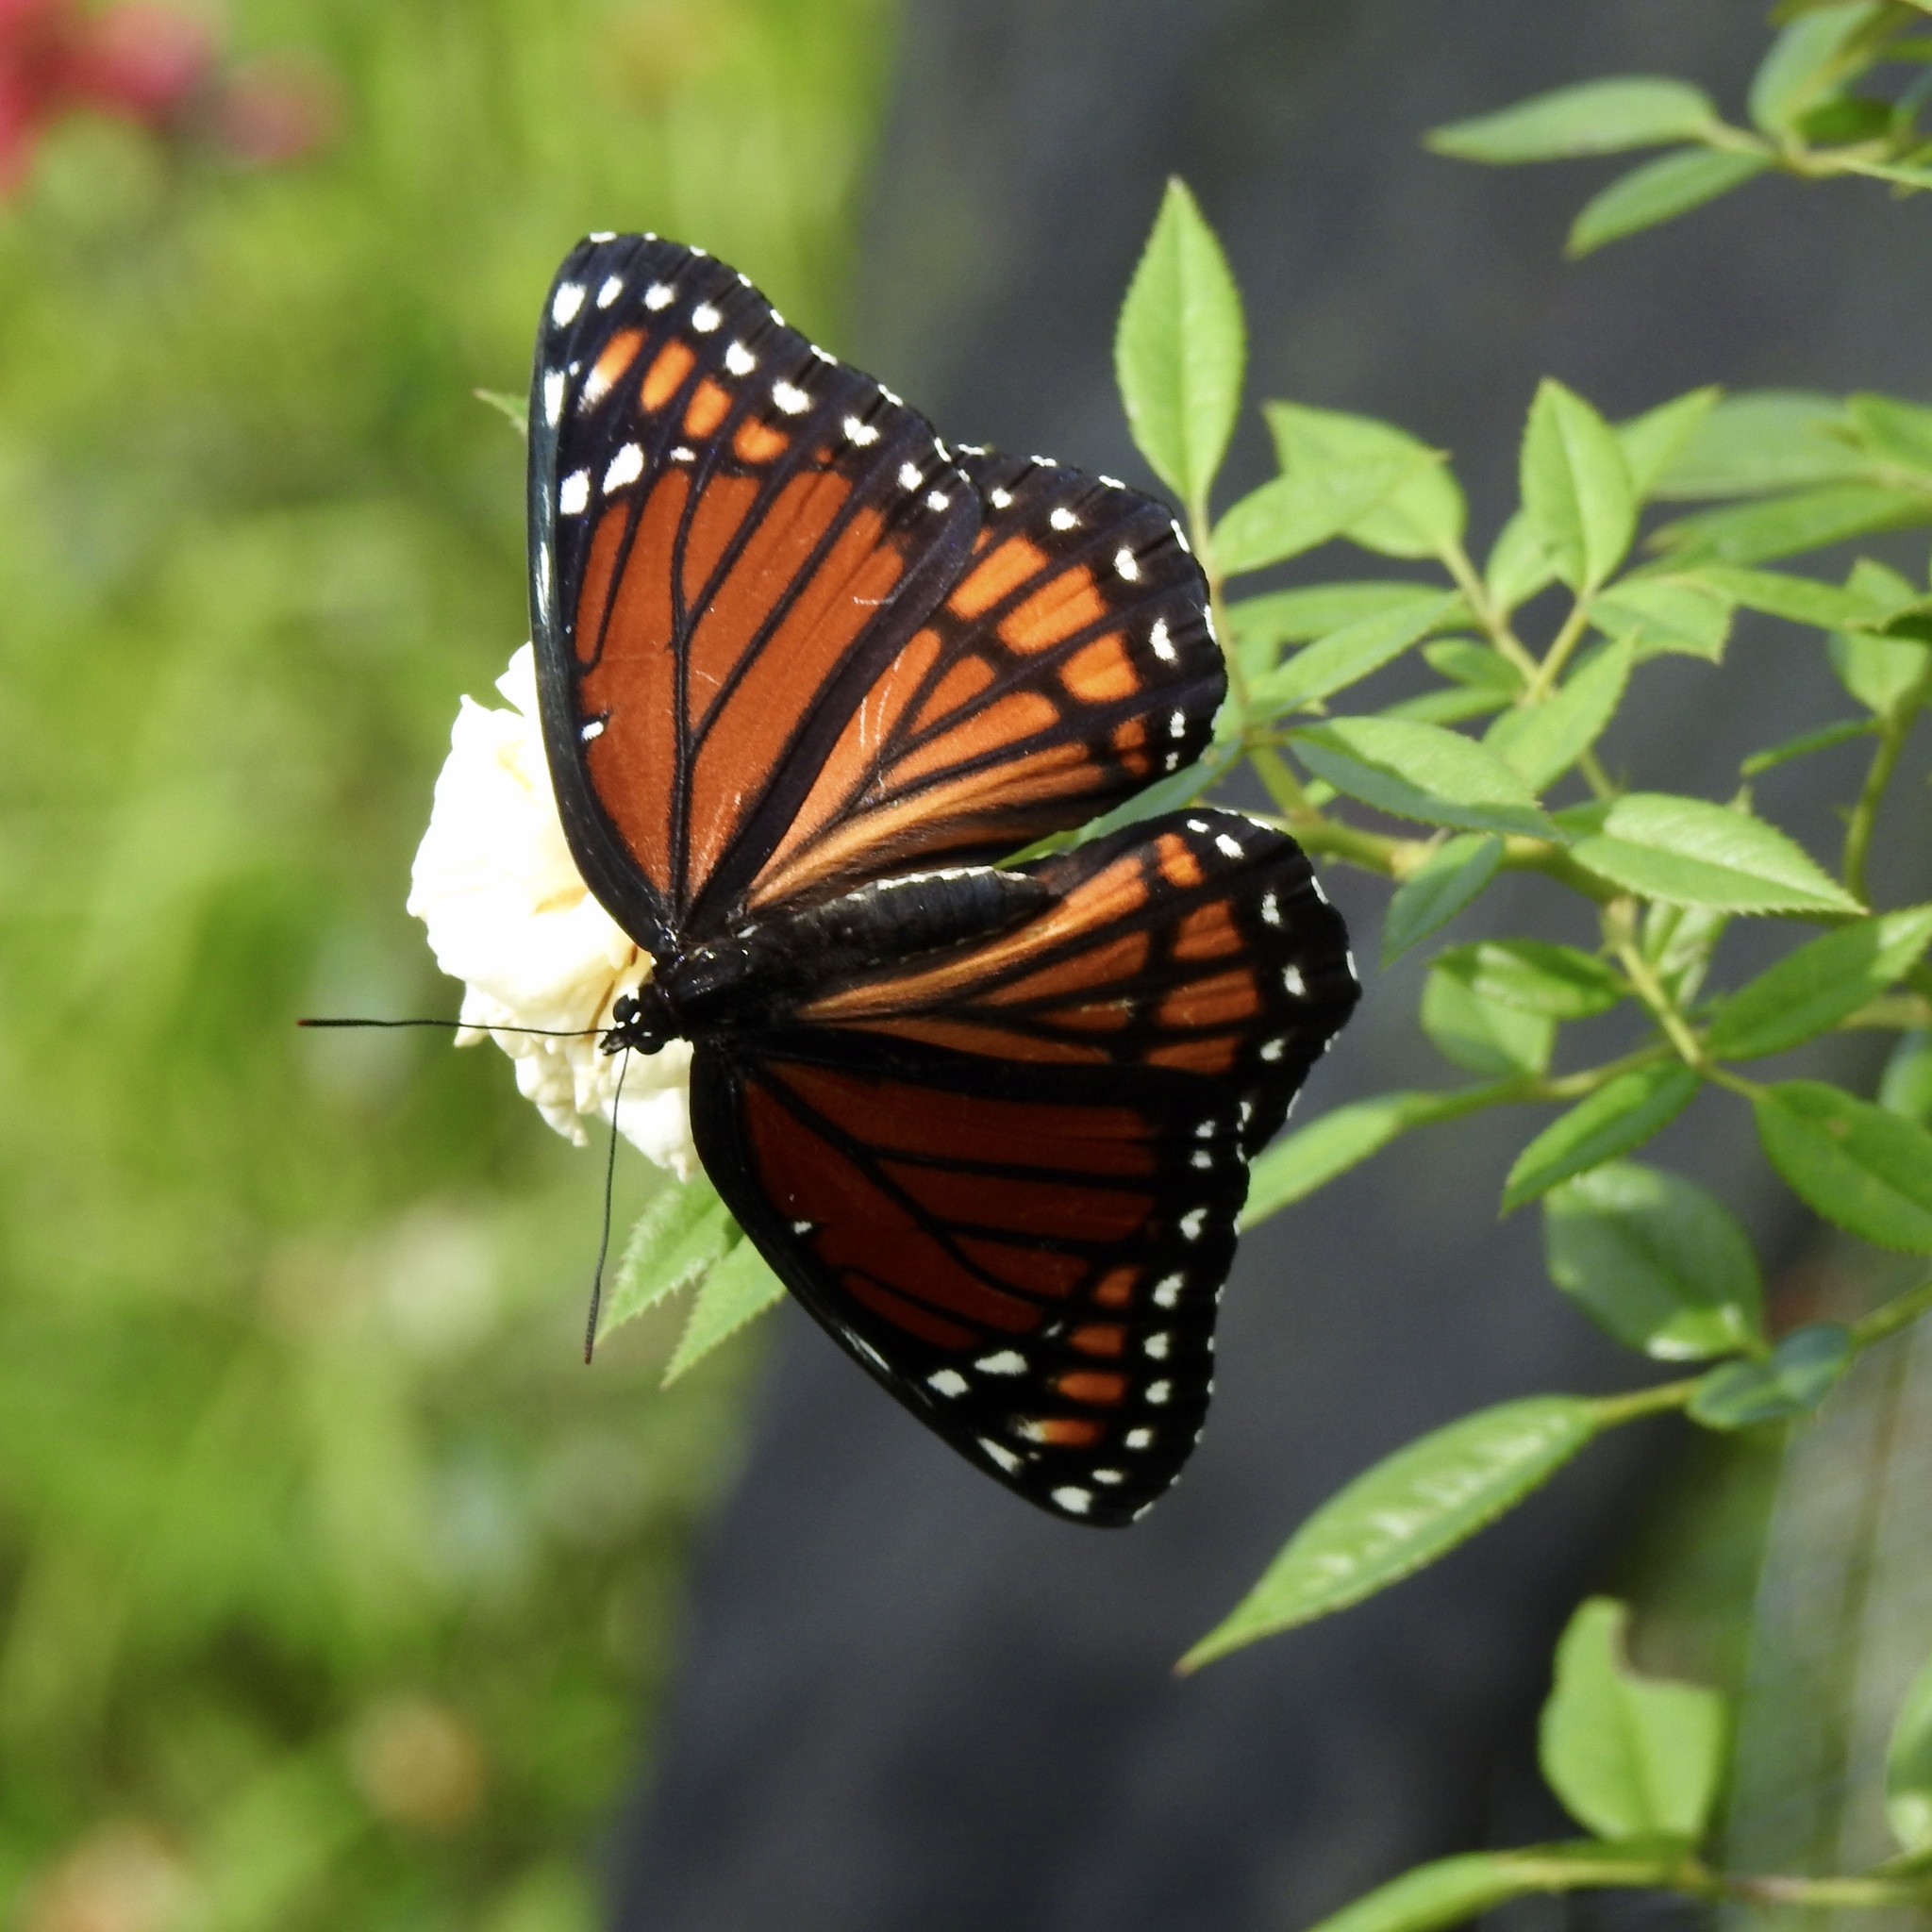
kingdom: Animalia
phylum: Arthropoda
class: Insecta
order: Lepidoptera
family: Nymphalidae
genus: Limenitis
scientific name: Limenitis archippus
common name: Viceroy
